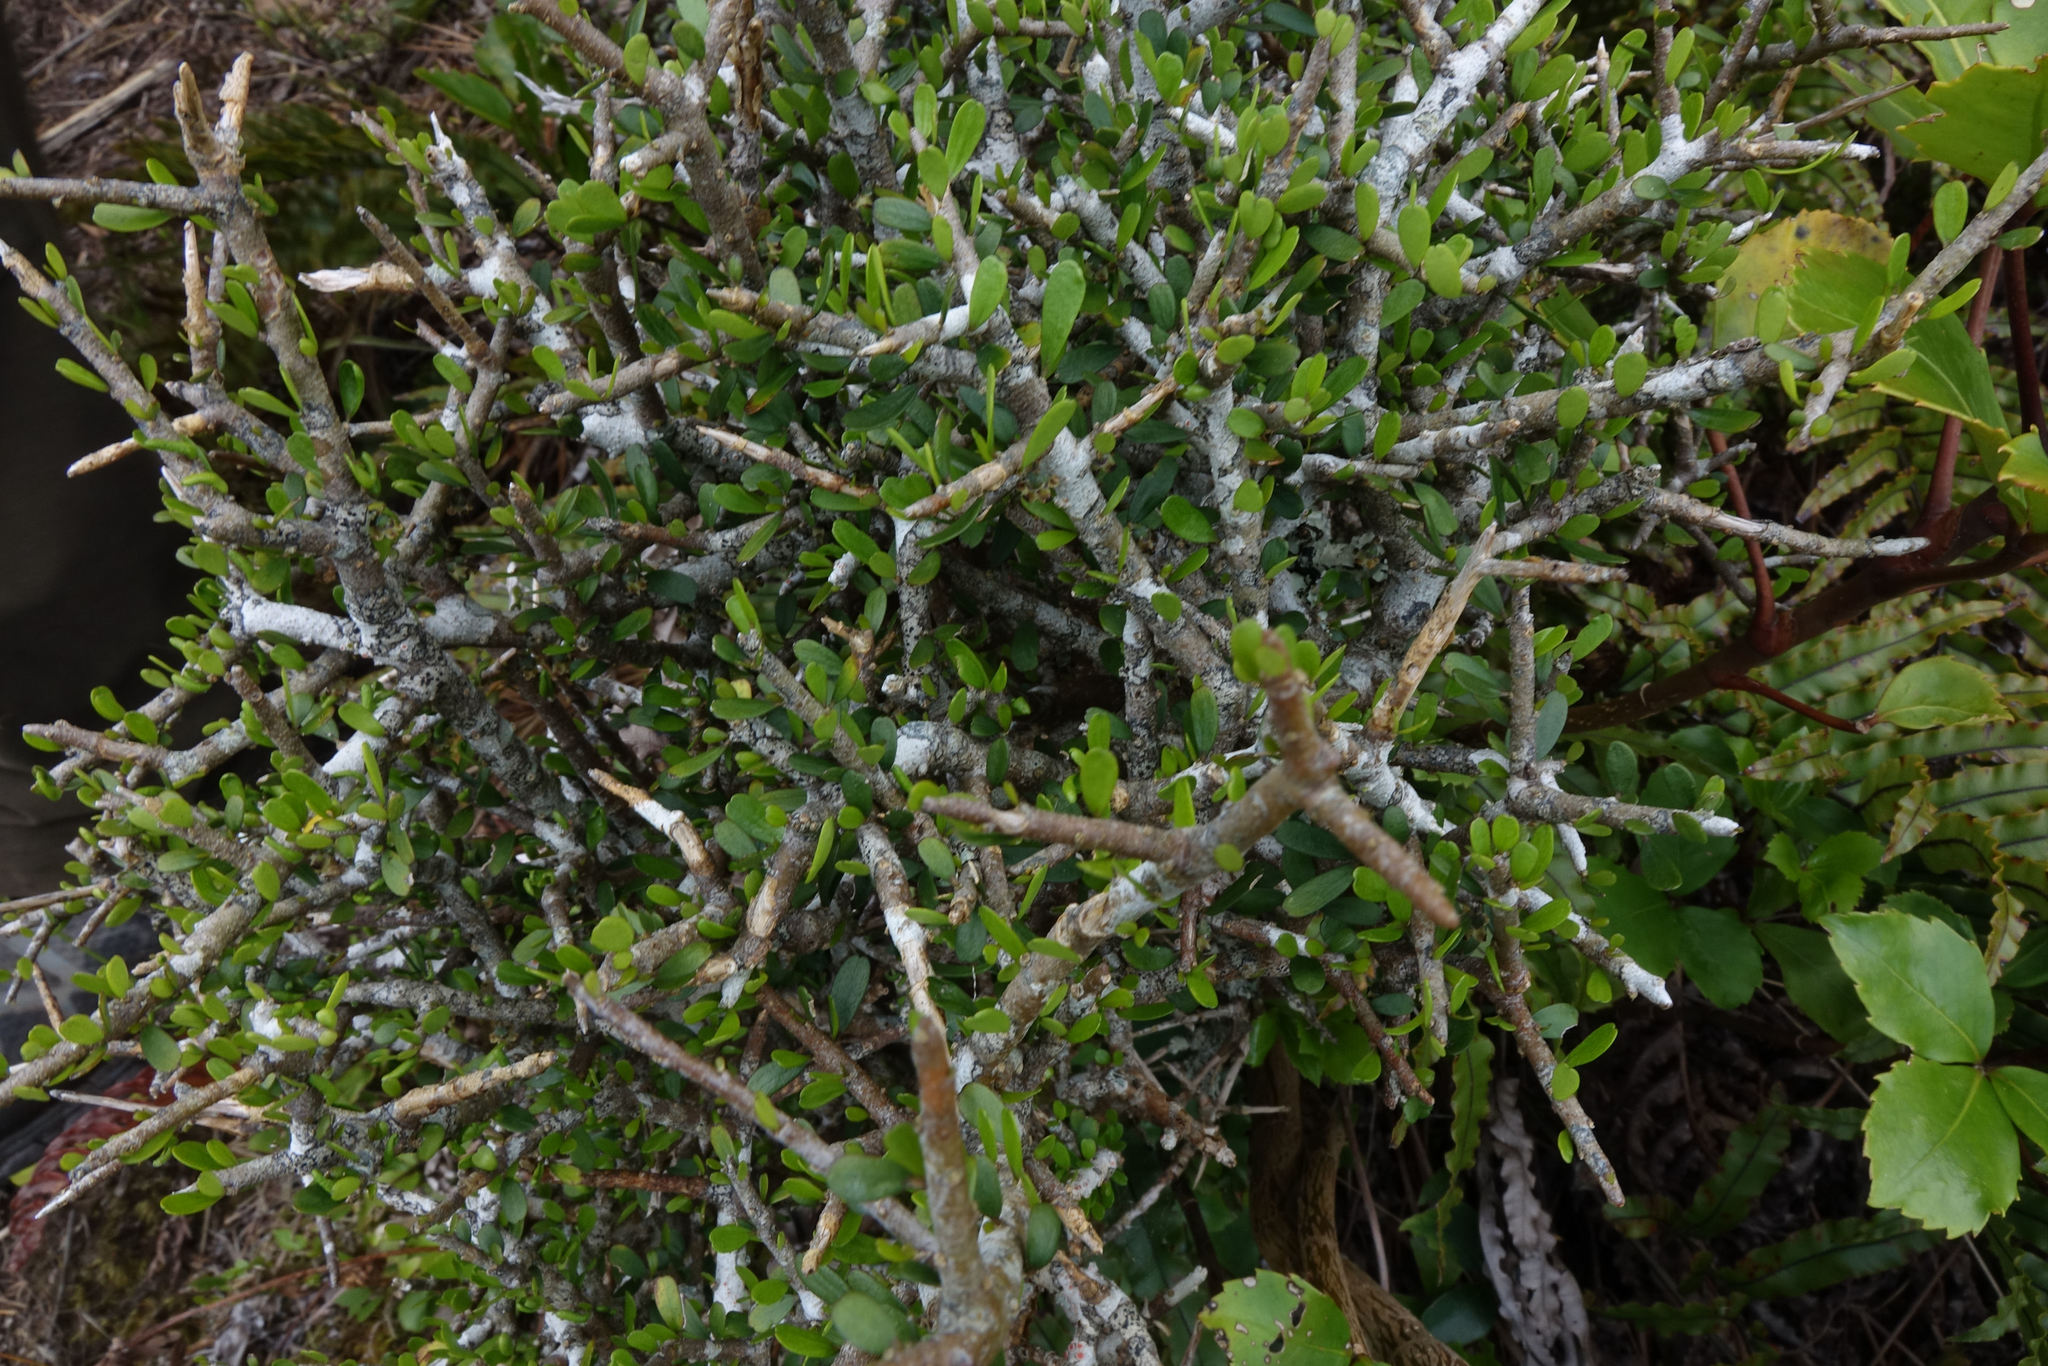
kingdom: Plantae
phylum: Tracheophyta
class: Magnoliopsida
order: Malpighiales
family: Violaceae
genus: Melicytus
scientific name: Melicytus alpinus
